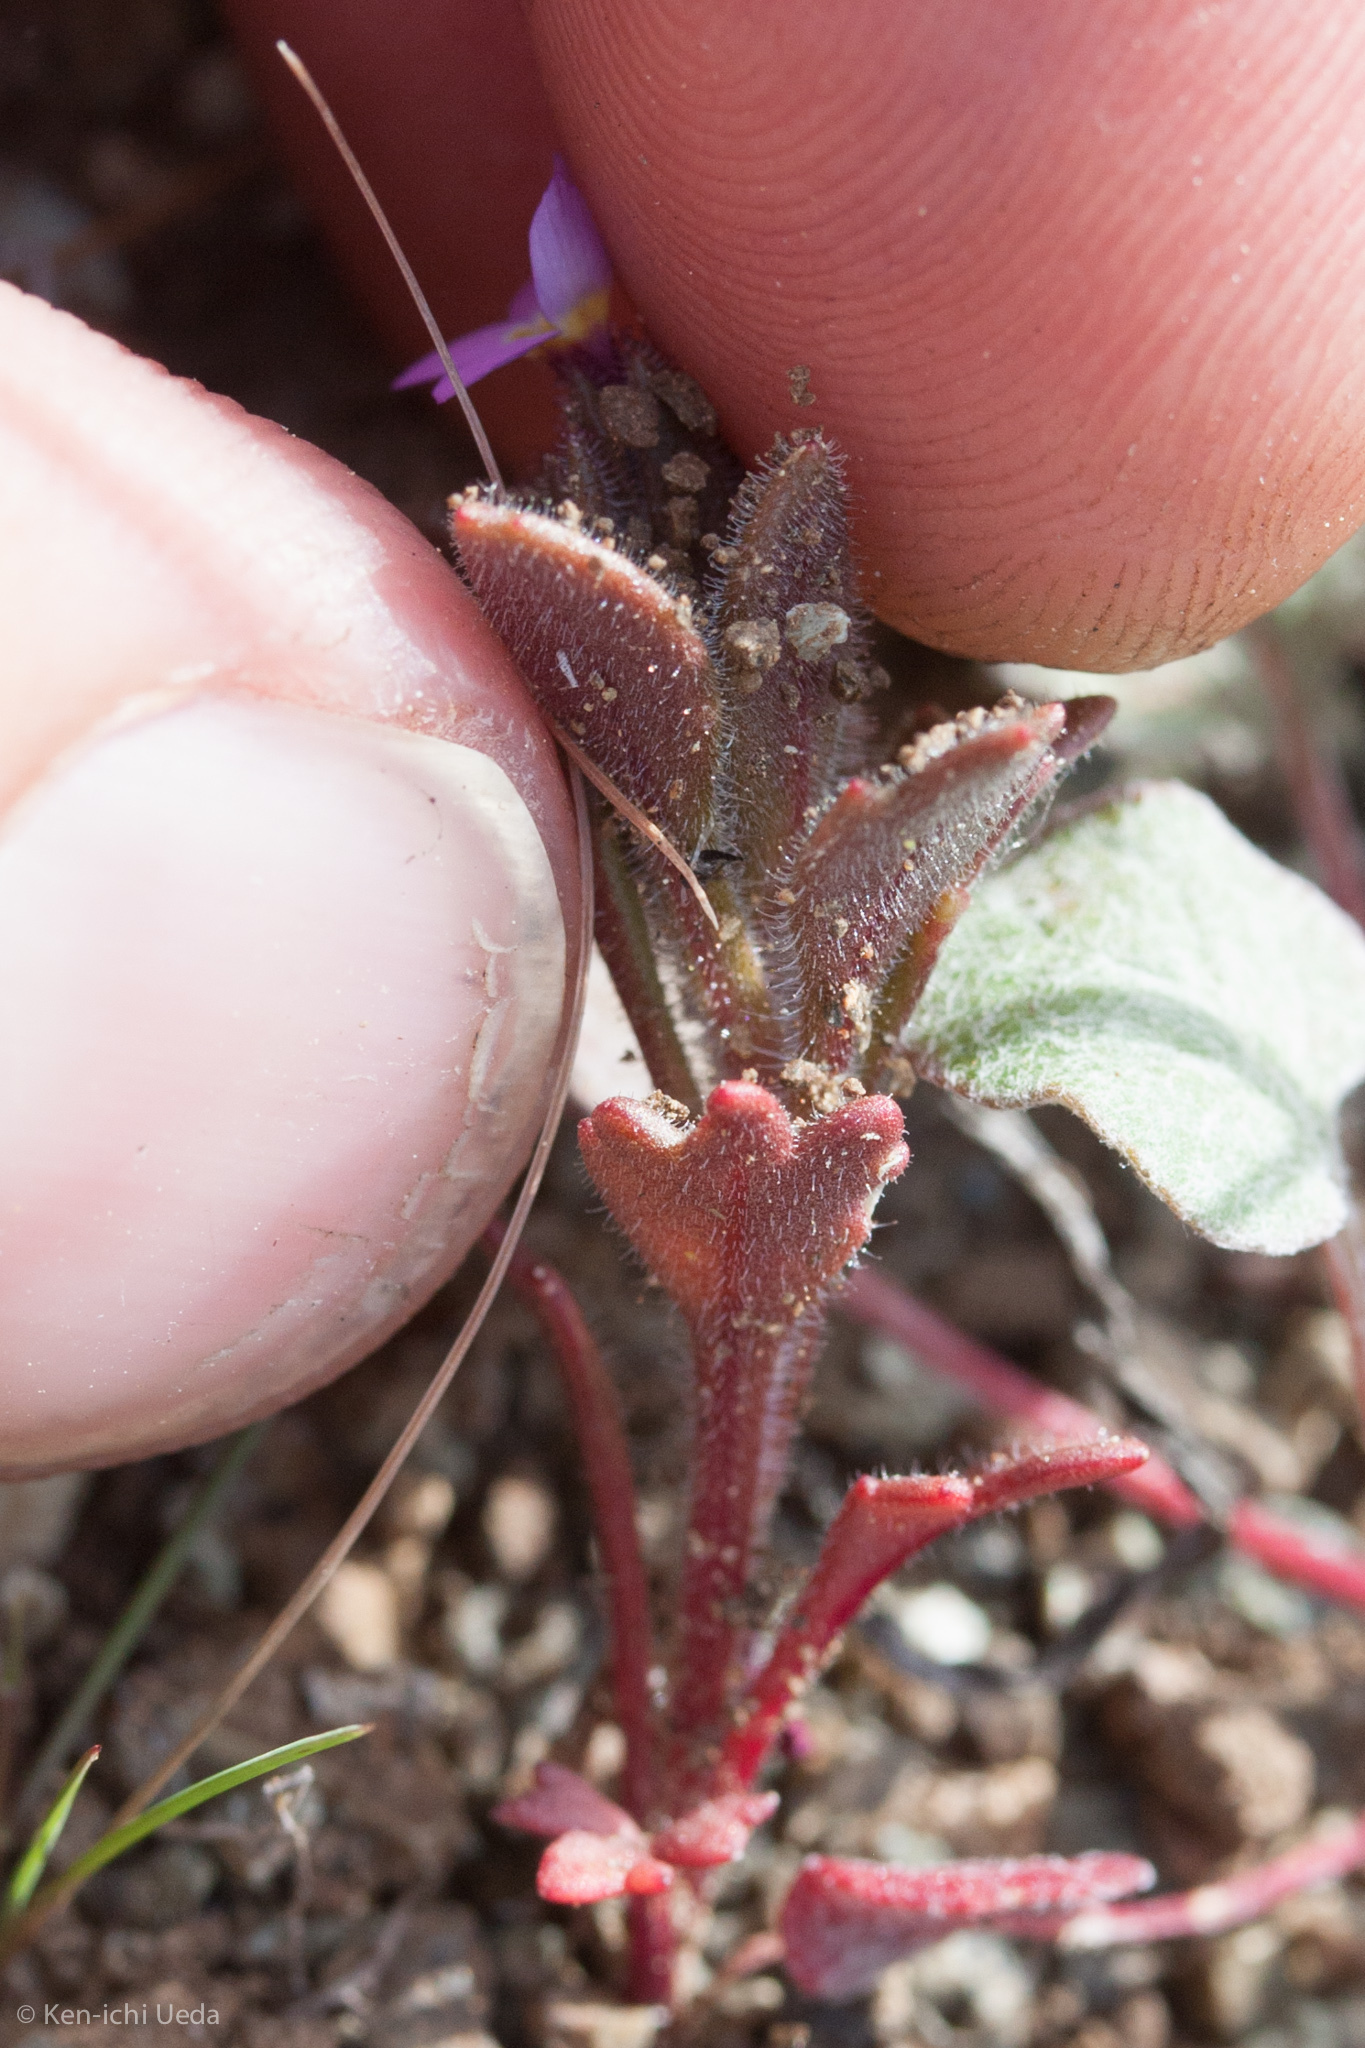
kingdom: Plantae
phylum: Tracheophyta
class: Magnoliopsida
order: Ericales
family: Polemoniaceae
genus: Collomia
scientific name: Collomia diversifolia
